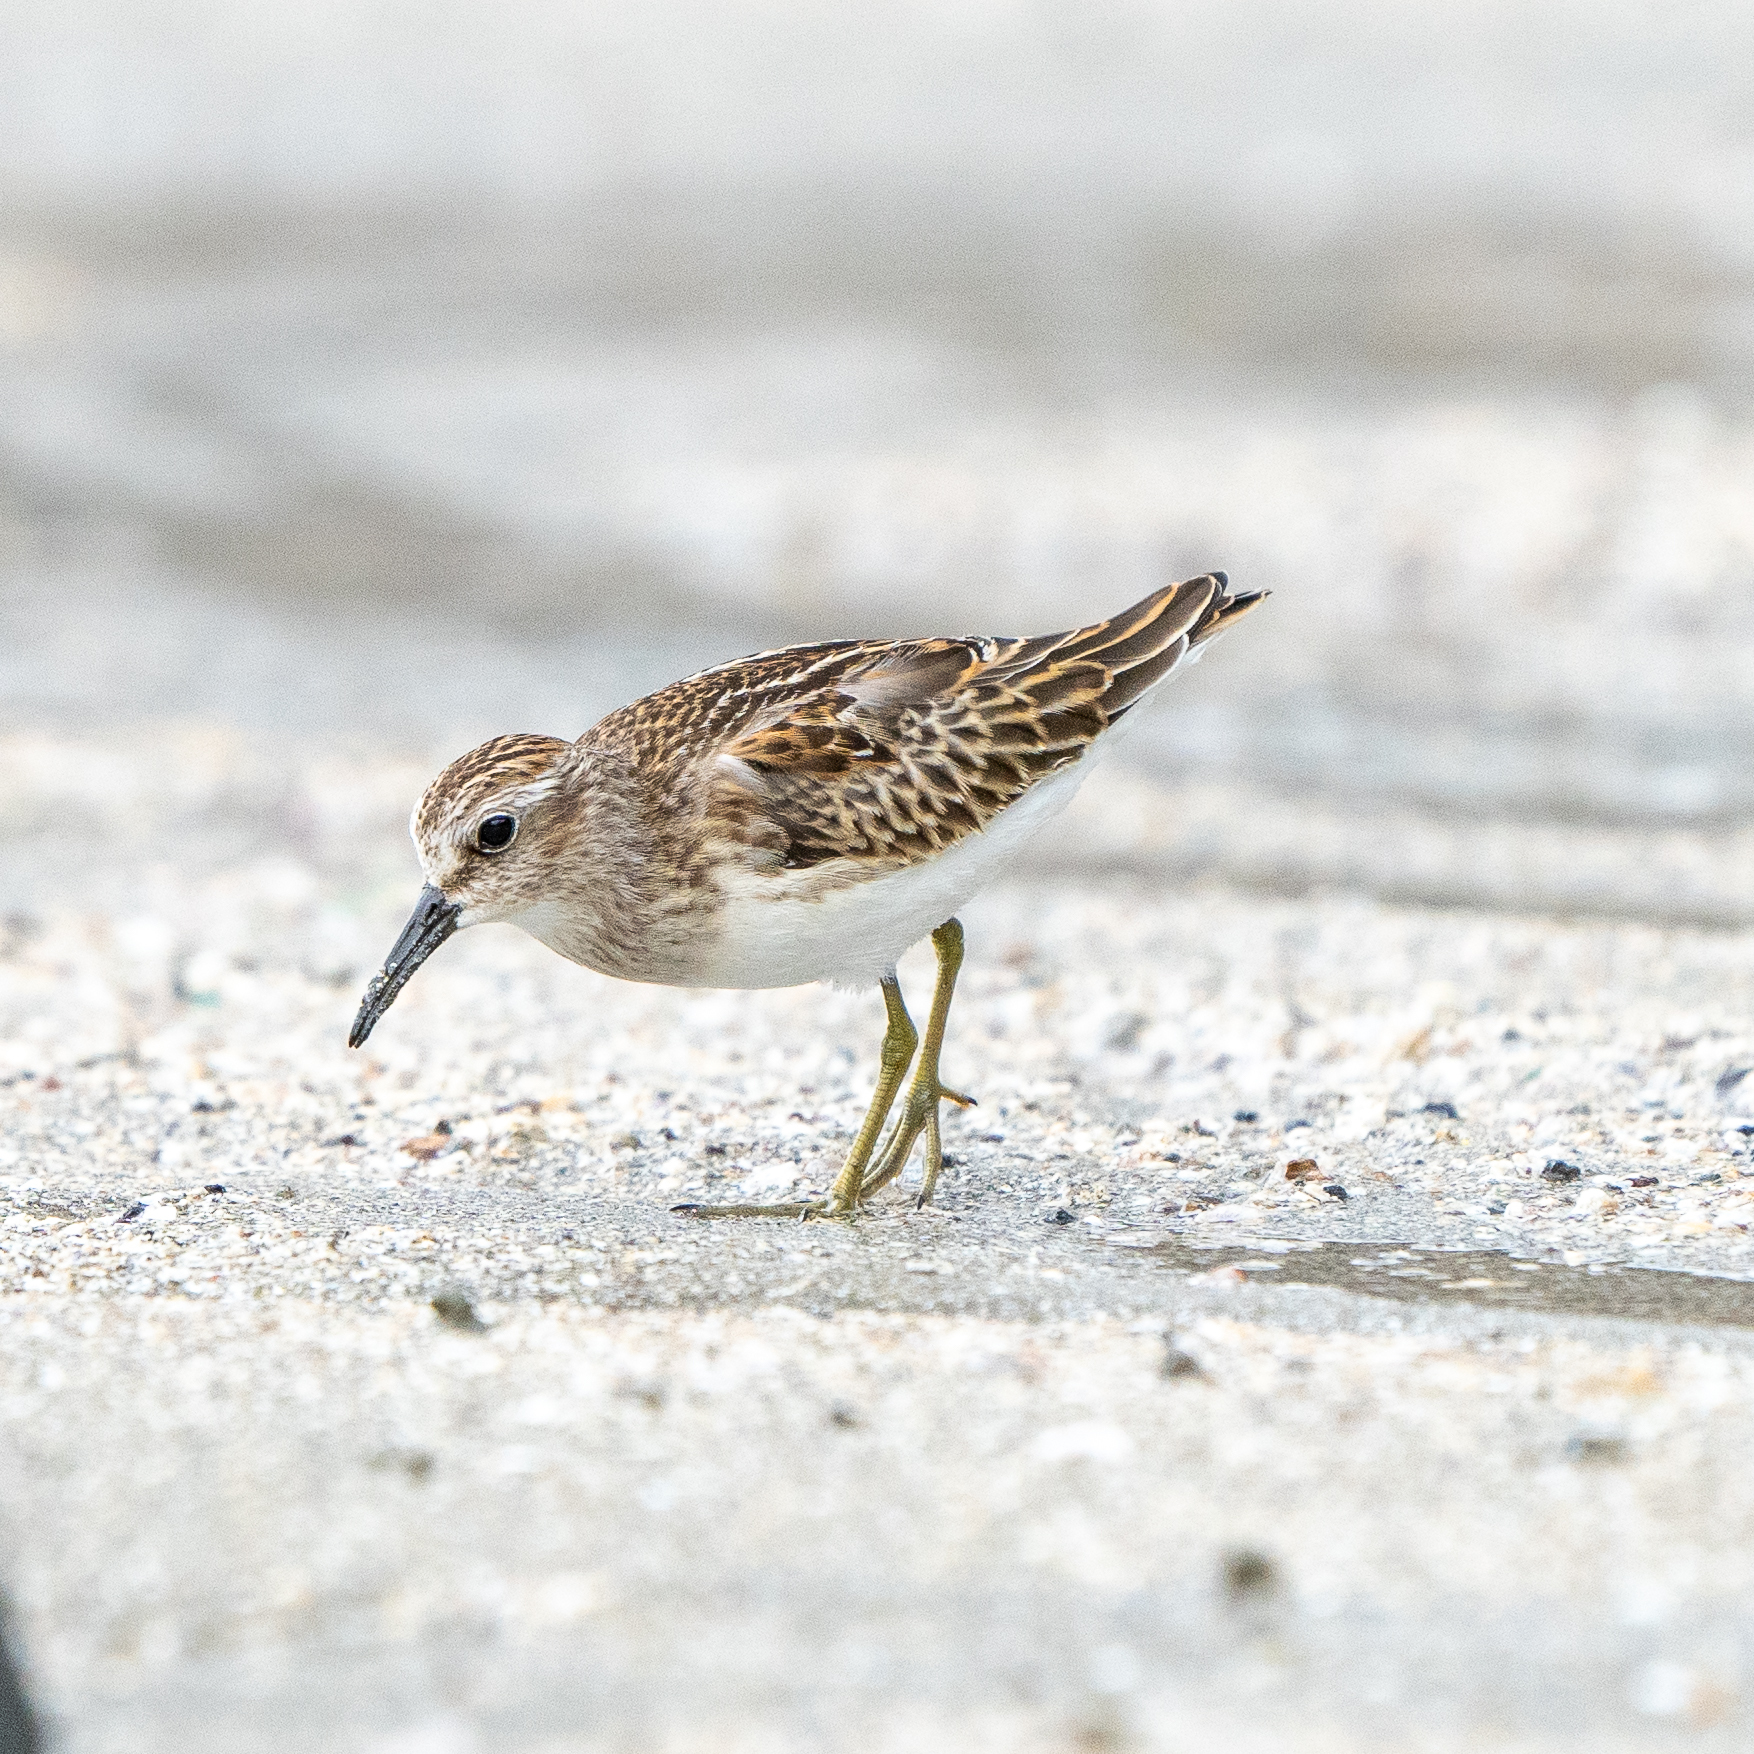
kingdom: Animalia
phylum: Chordata
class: Aves
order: Charadriiformes
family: Scolopacidae
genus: Calidris
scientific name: Calidris minutilla
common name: Least sandpiper
